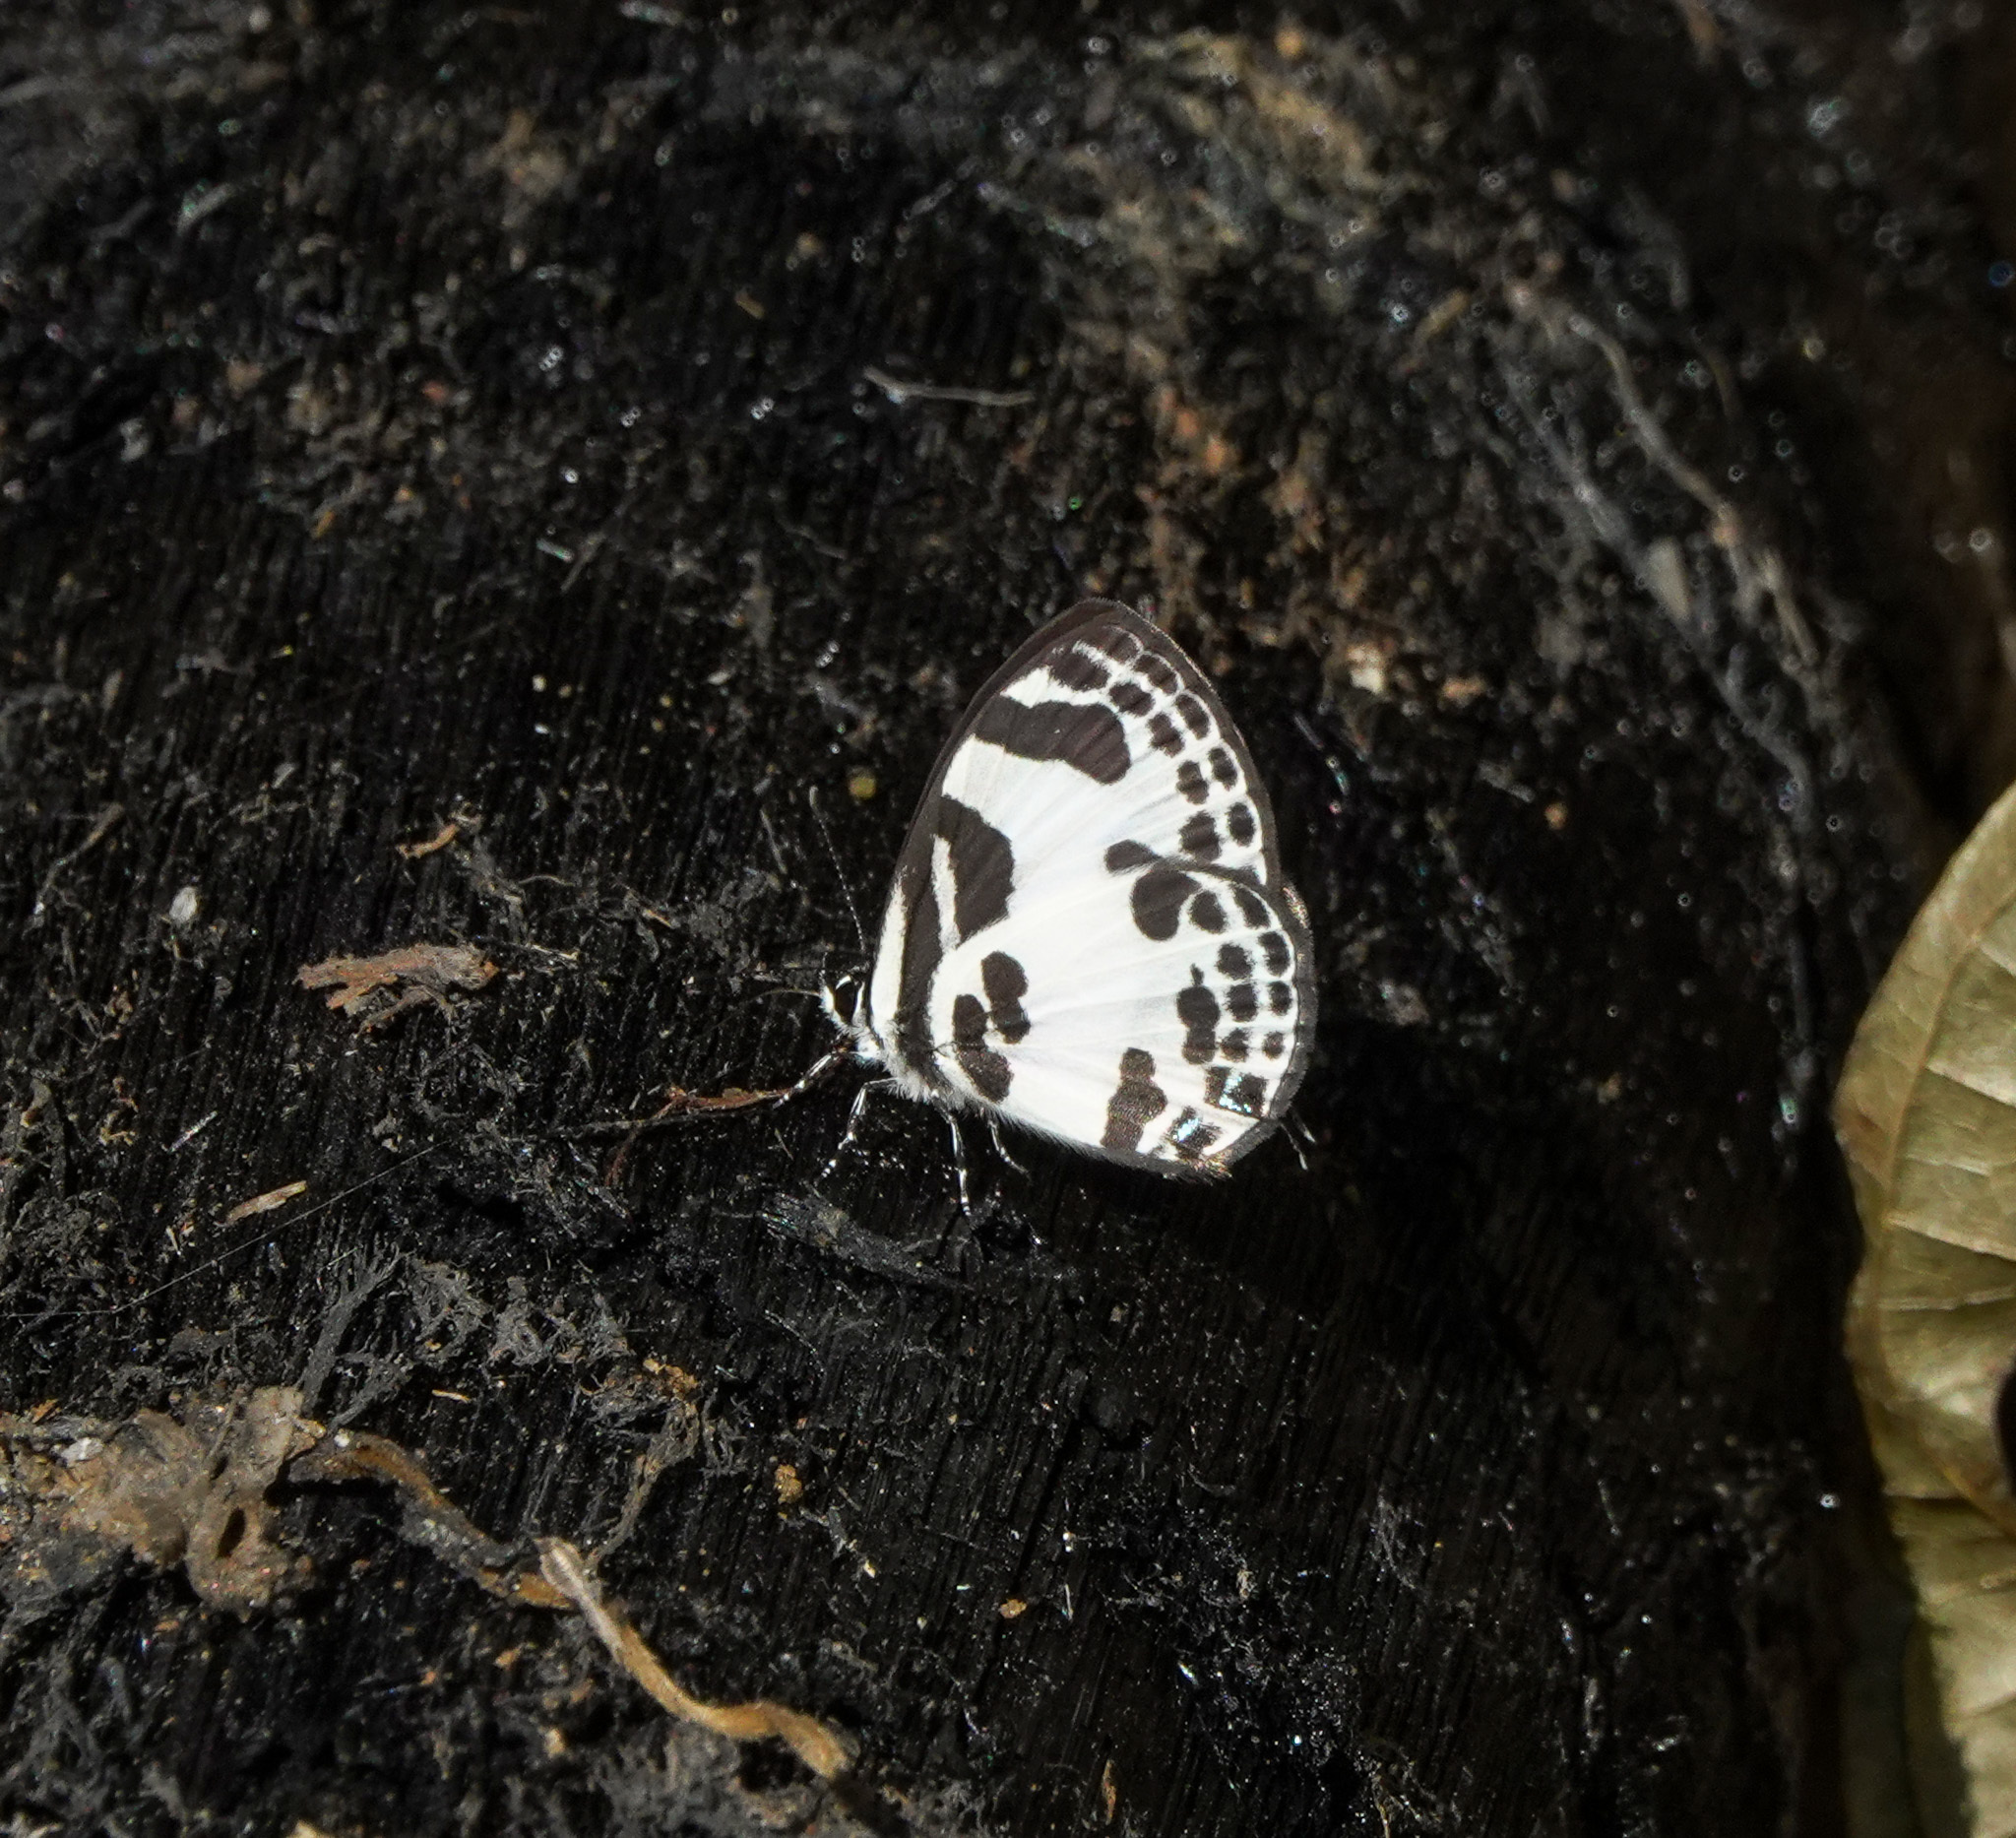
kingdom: Animalia
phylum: Arthropoda
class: Insecta
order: Lepidoptera
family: Lycaenidae
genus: Discolampa
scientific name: Discolampa ethion
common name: Banded blue pierrot
